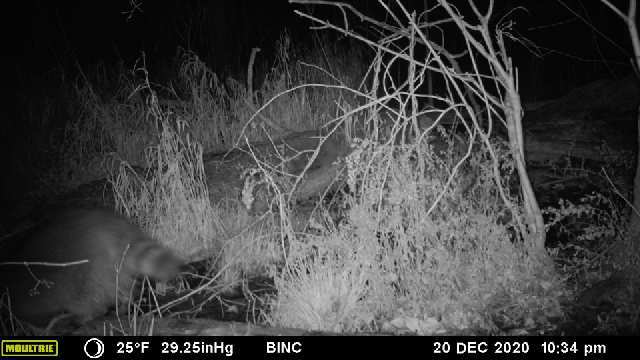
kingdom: Animalia
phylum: Chordata
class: Mammalia
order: Carnivora
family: Procyonidae
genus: Procyon
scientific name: Procyon lotor
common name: Raccoon
